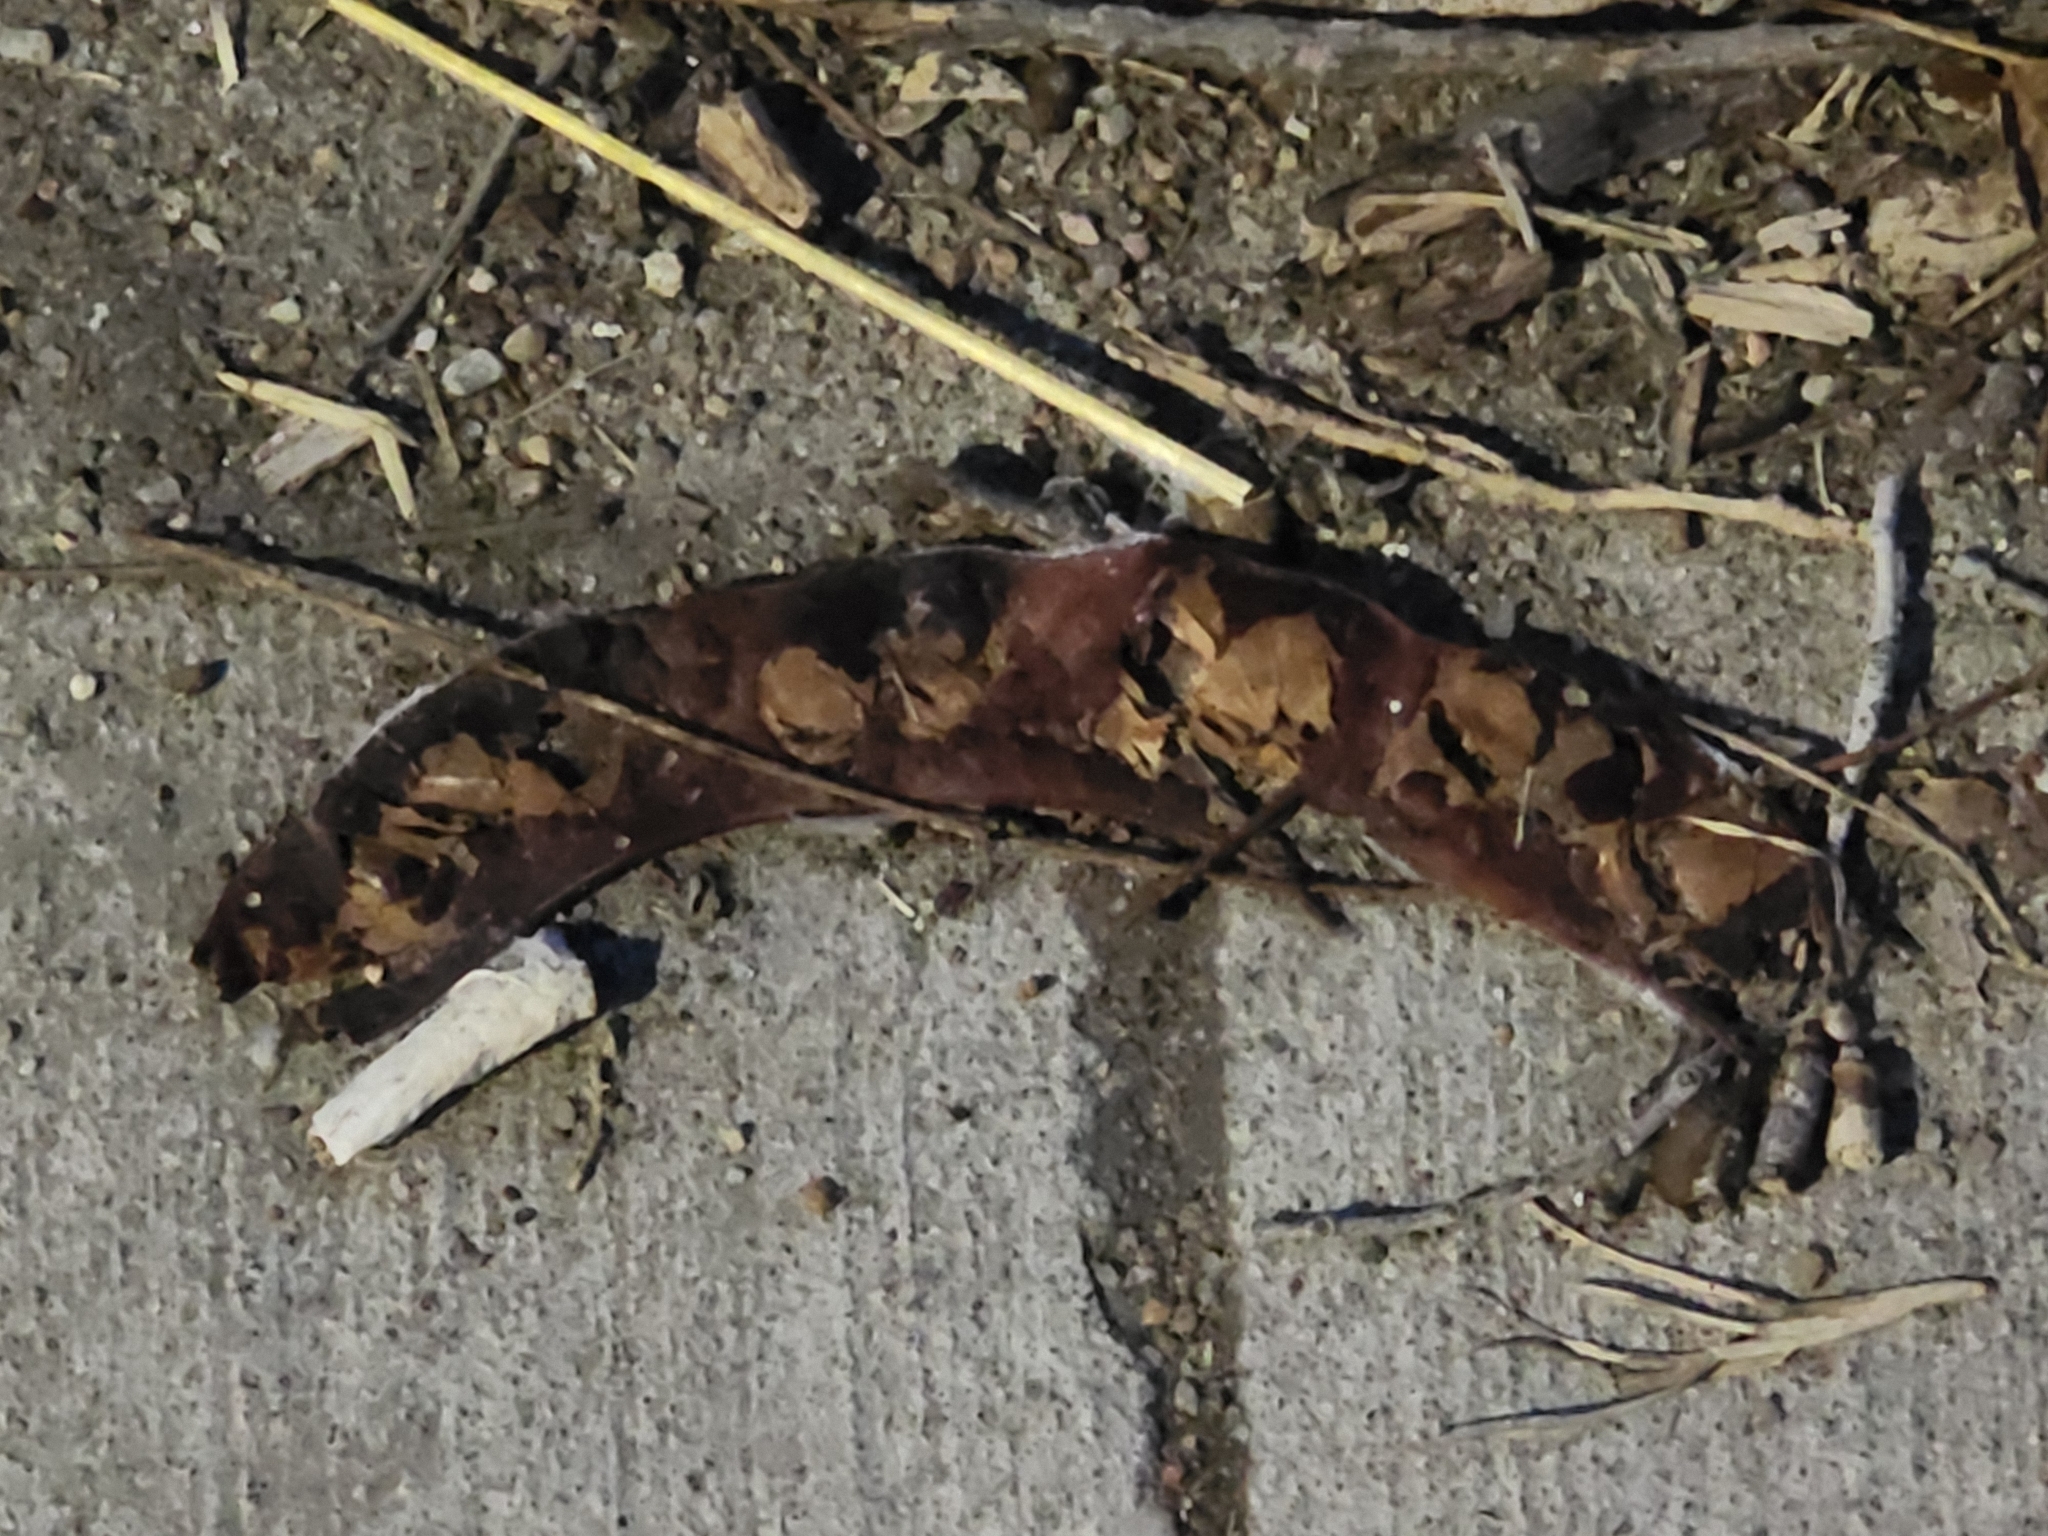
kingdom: Plantae
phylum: Tracheophyta
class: Magnoliopsida
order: Fabales
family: Fabaceae
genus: Gleditsia
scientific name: Gleditsia triacanthos
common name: Common honeylocust
